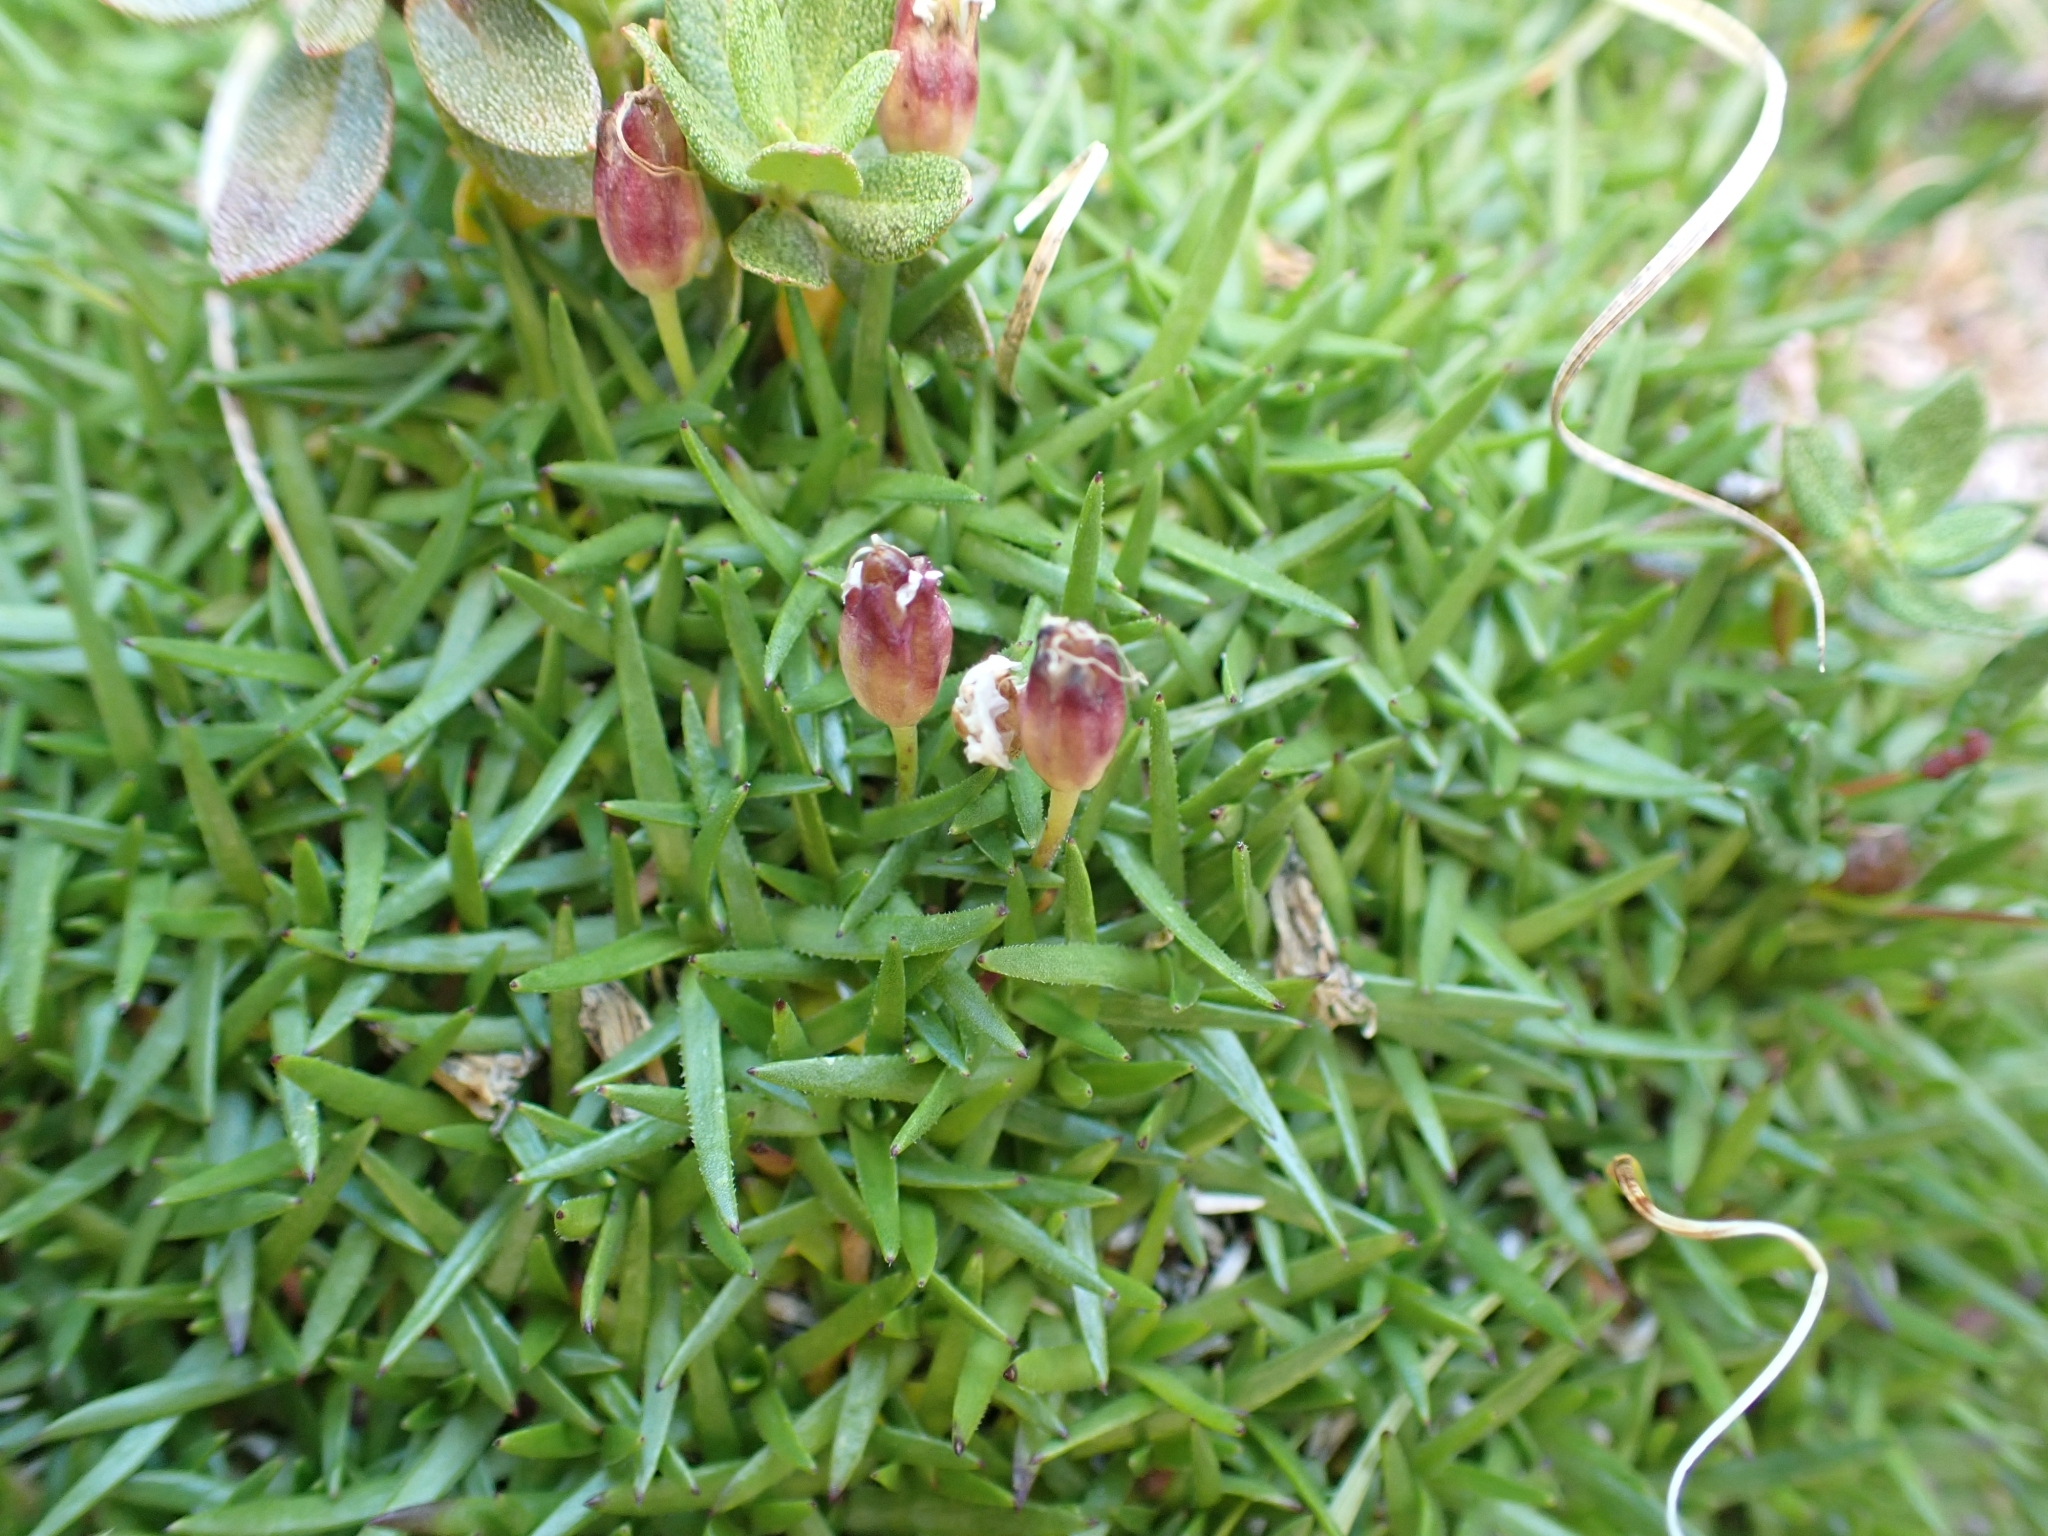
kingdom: Plantae
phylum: Tracheophyta
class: Magnoliopsida
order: Caryophyllales
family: Caryophyllaceae
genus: Silene
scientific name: Silene acaulis
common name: Moss campion
